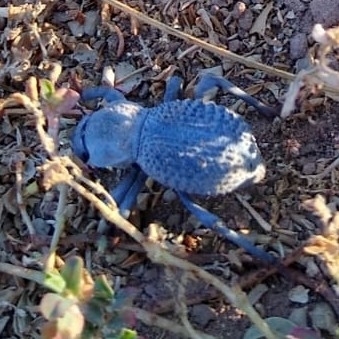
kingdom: Animalia
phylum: Arthropoda
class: Insecta
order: Coleoptera
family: Tenebrionidae
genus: Asbolus
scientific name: Asbolus verrucosus
